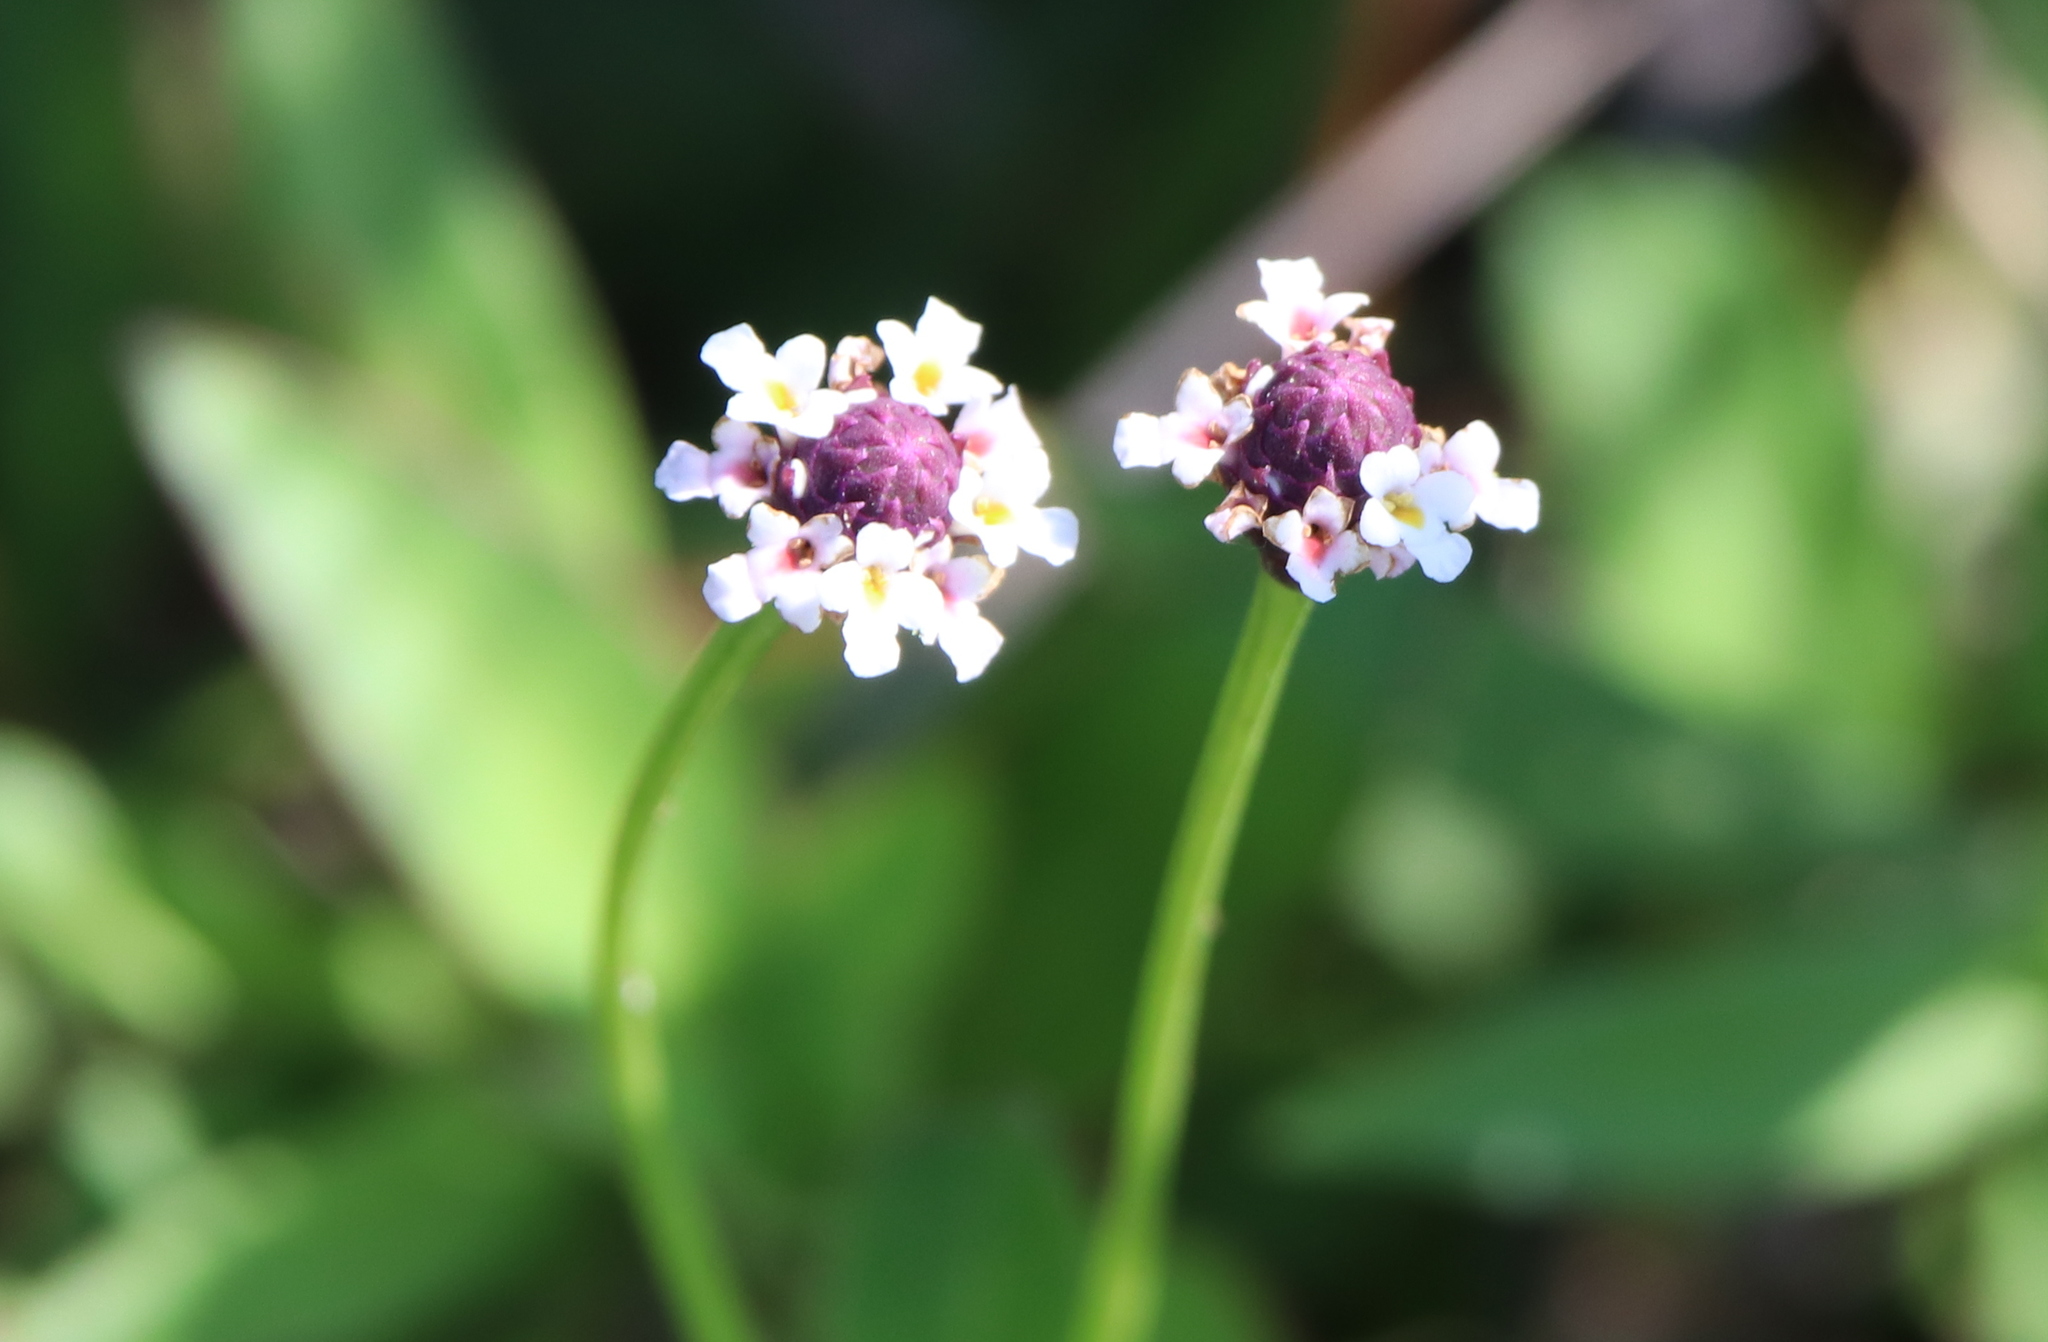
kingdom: Plantae
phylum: Tracheophyta
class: Magnoliopsida
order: Lamiales
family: Verbenaceae
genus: Phyla
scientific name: Phyla nodiflora
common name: Frogfruit
